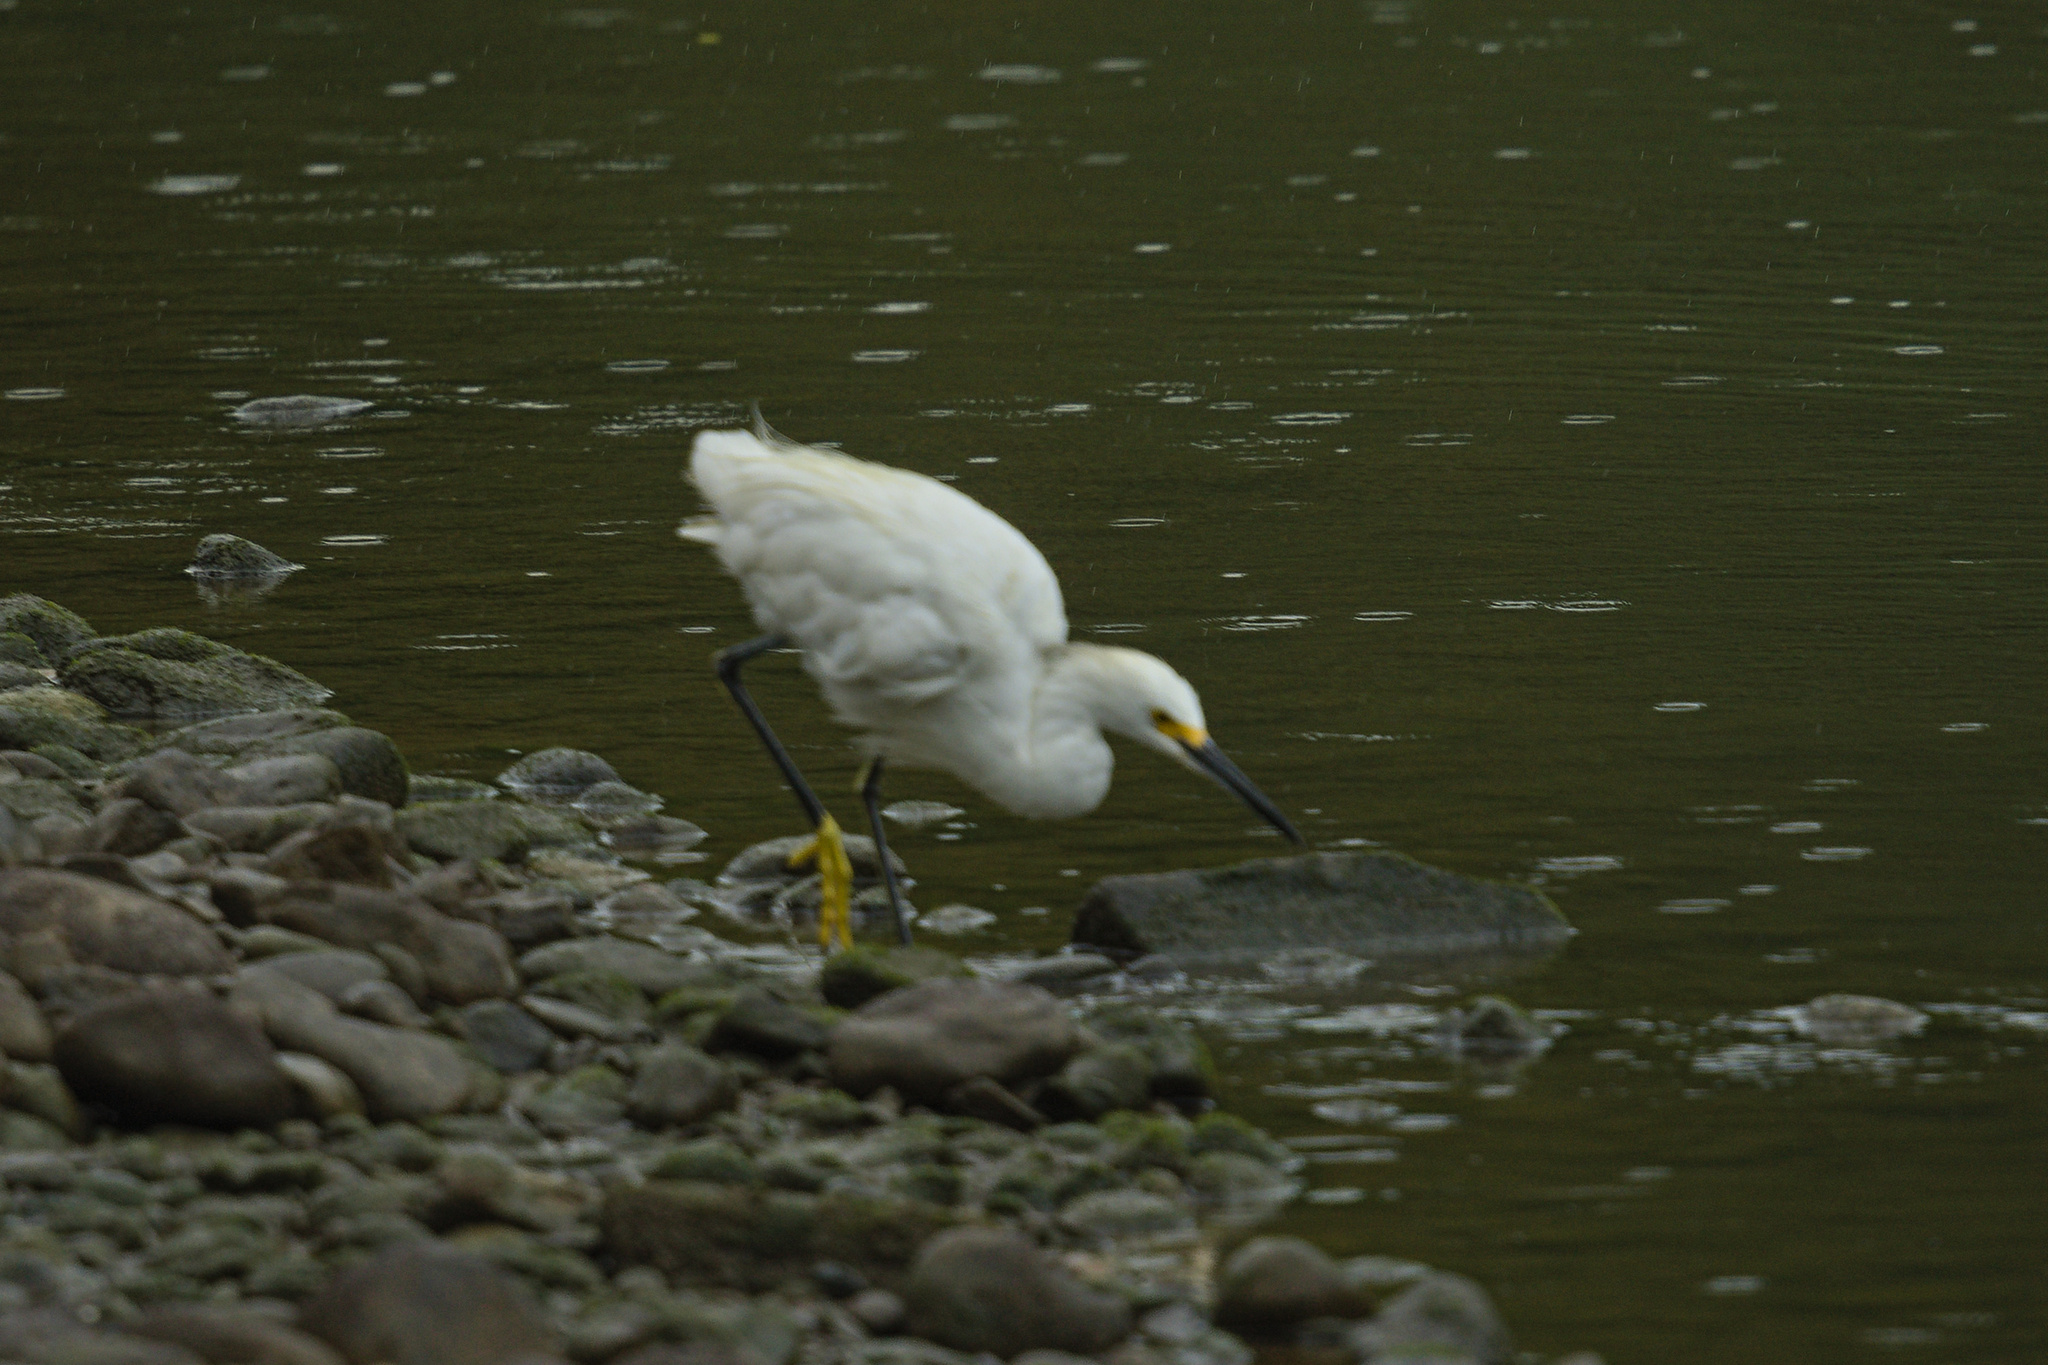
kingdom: Animalia
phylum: Chordata
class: Aves
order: Pelecaniformes
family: Ardeidae
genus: Egretta
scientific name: Egretta thula
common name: Snowy egret
